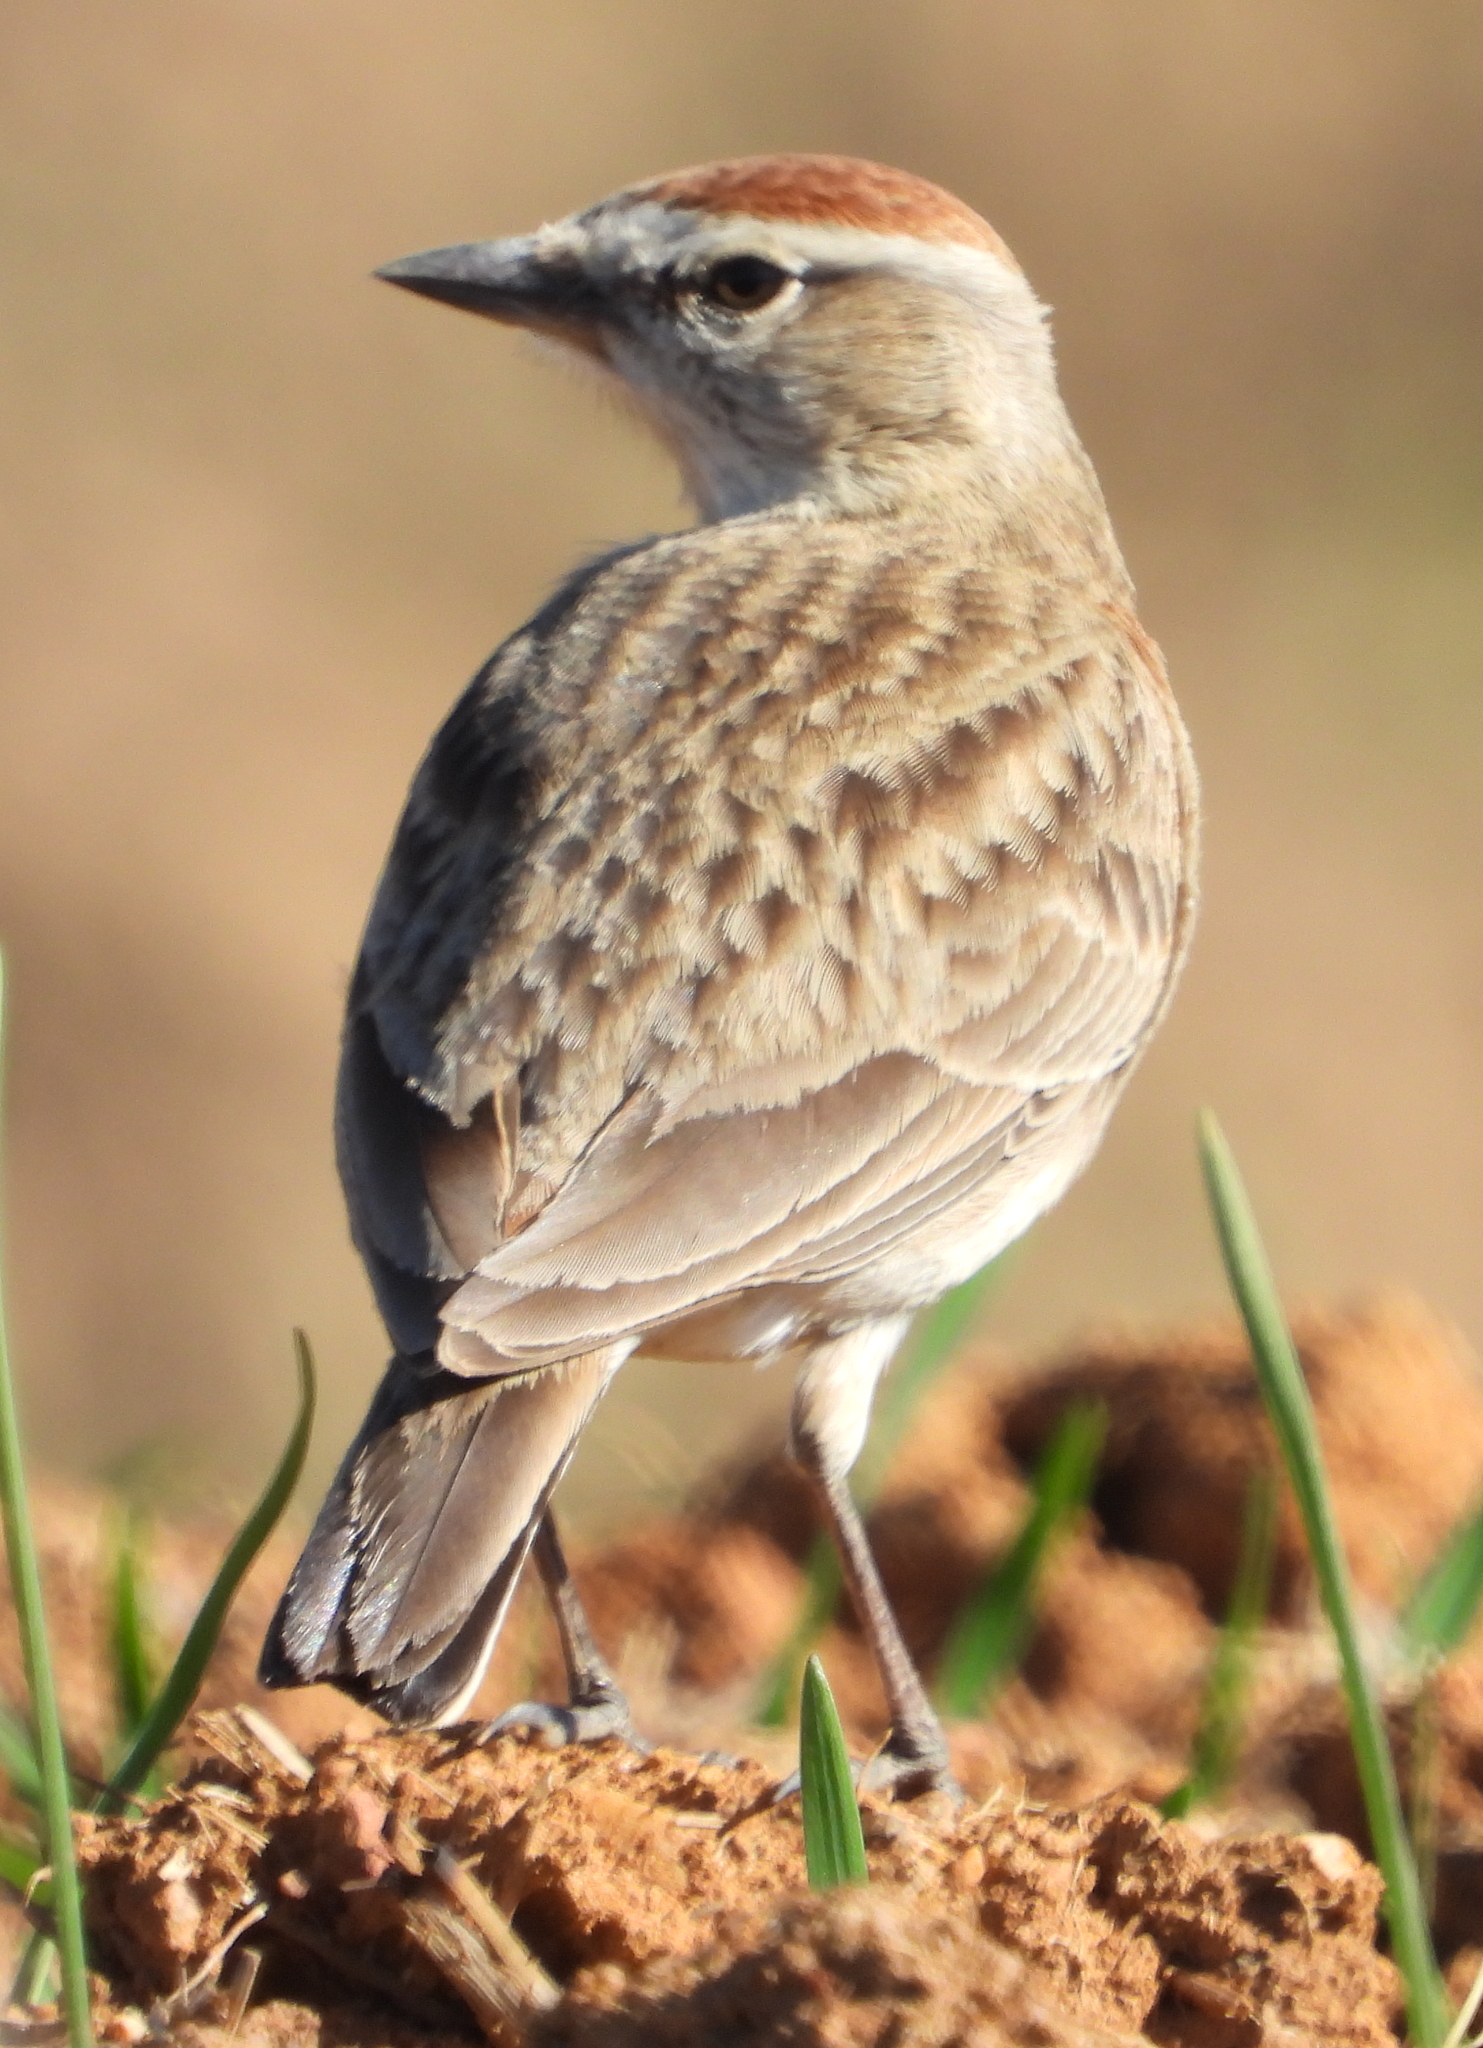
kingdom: Animalia
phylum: Chordata
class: Aves
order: Passeriformes
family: Alaudidae
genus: Calandrella
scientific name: Calandrella cinerea
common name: Red-capped lark
